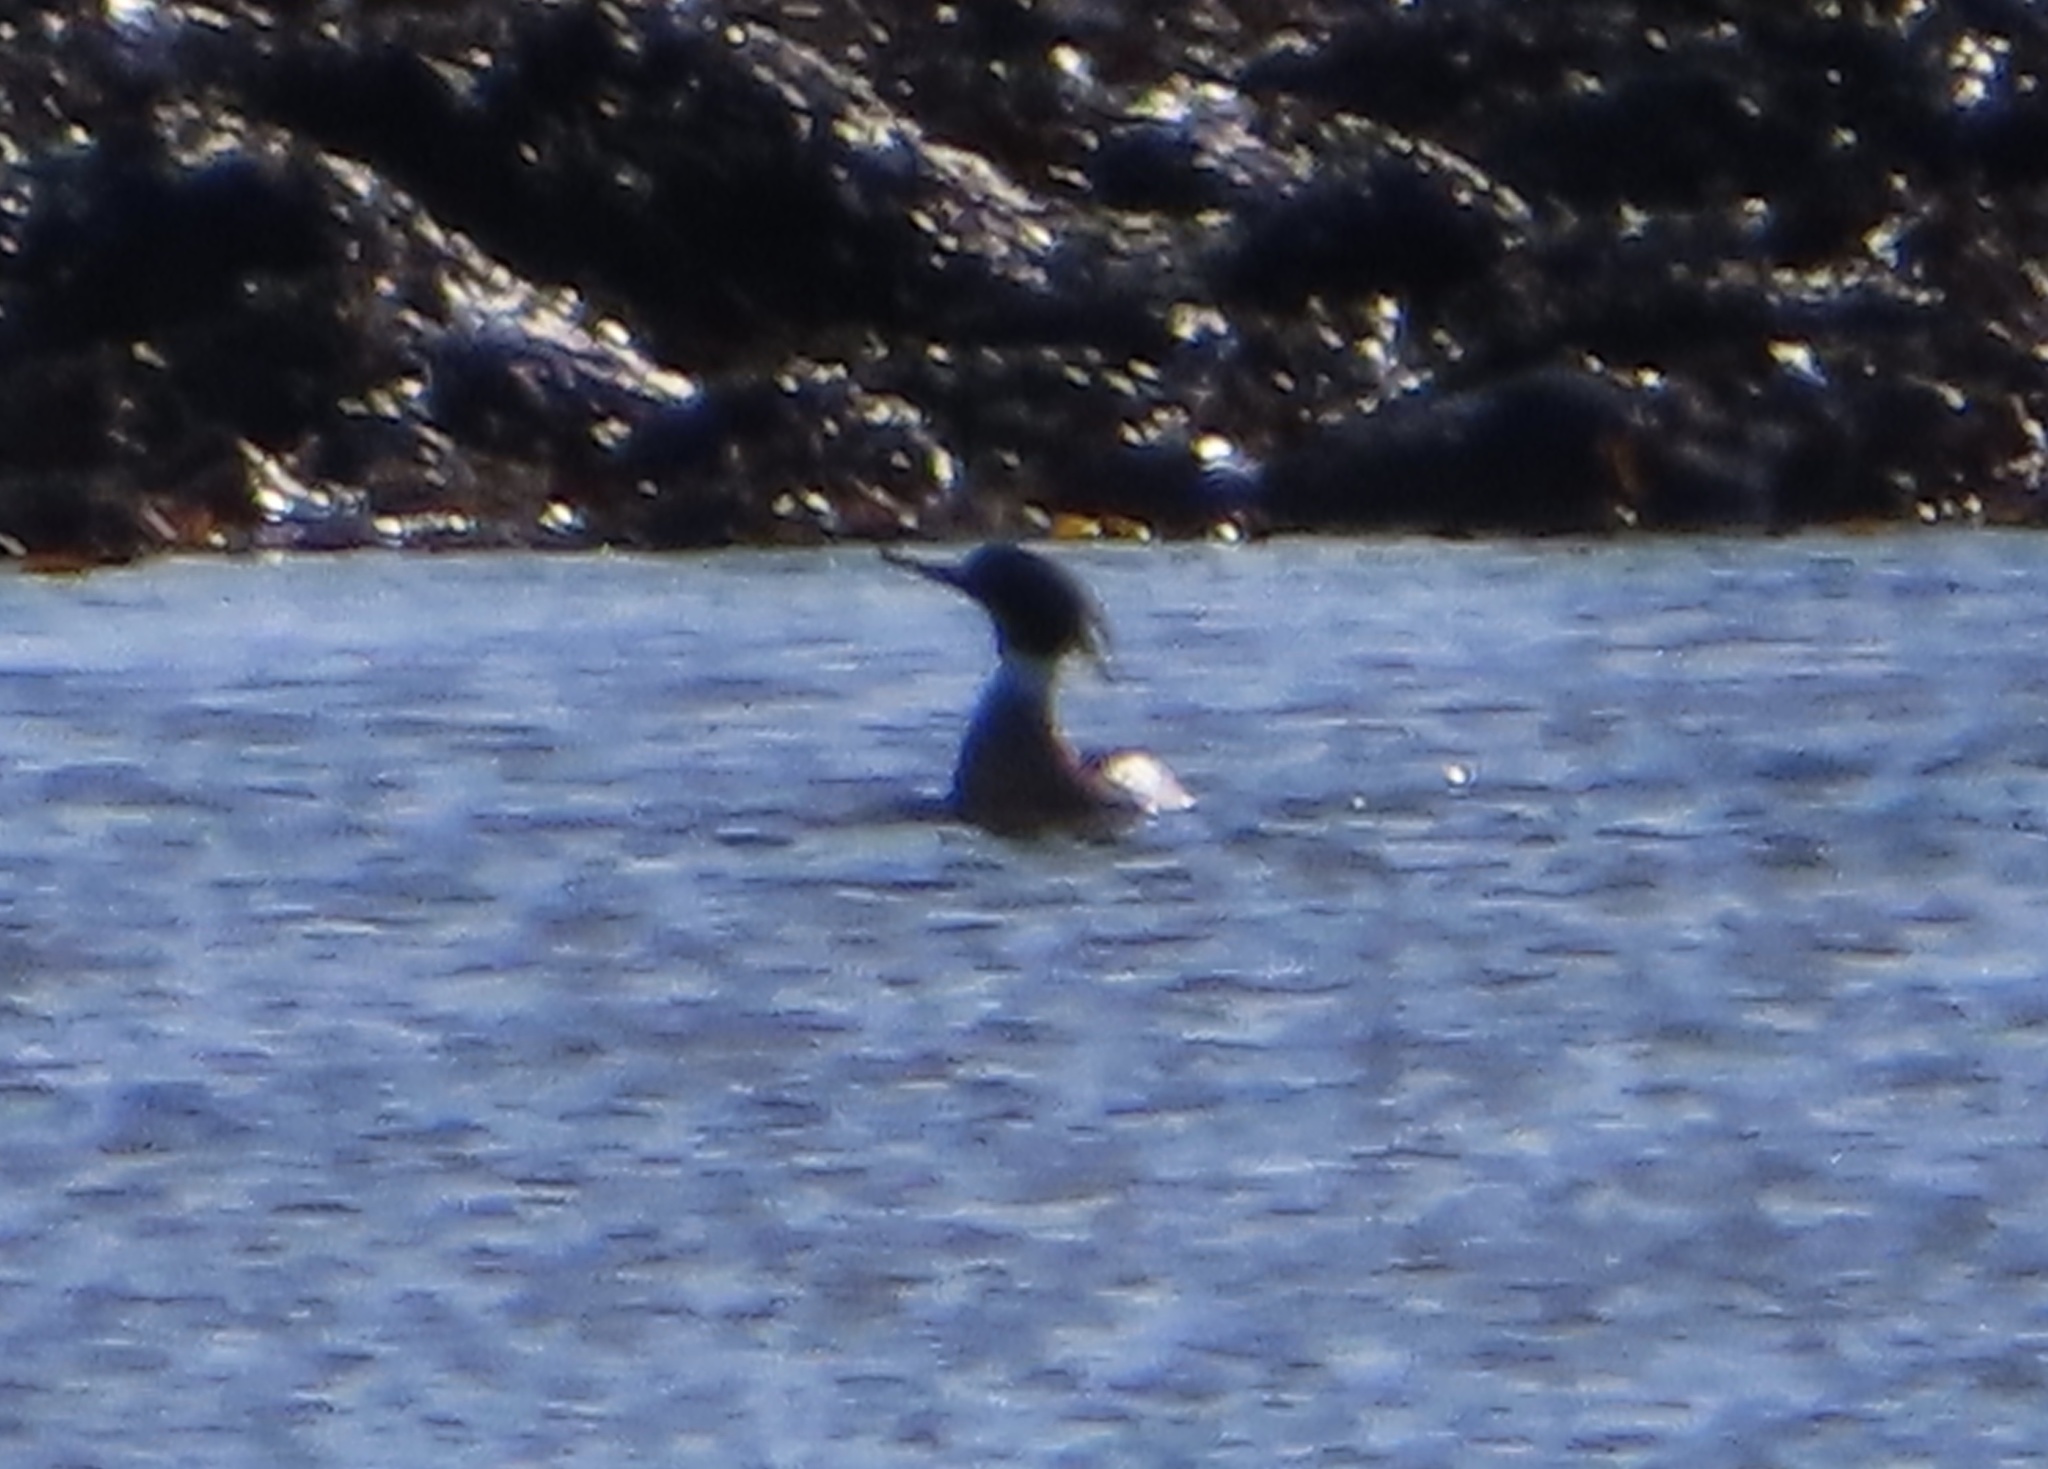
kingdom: Animalia
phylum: Chordata
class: Aves
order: Anseriformes
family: Anatidae
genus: Mergus
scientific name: Mergus serrator
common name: Red-breasted merganser
